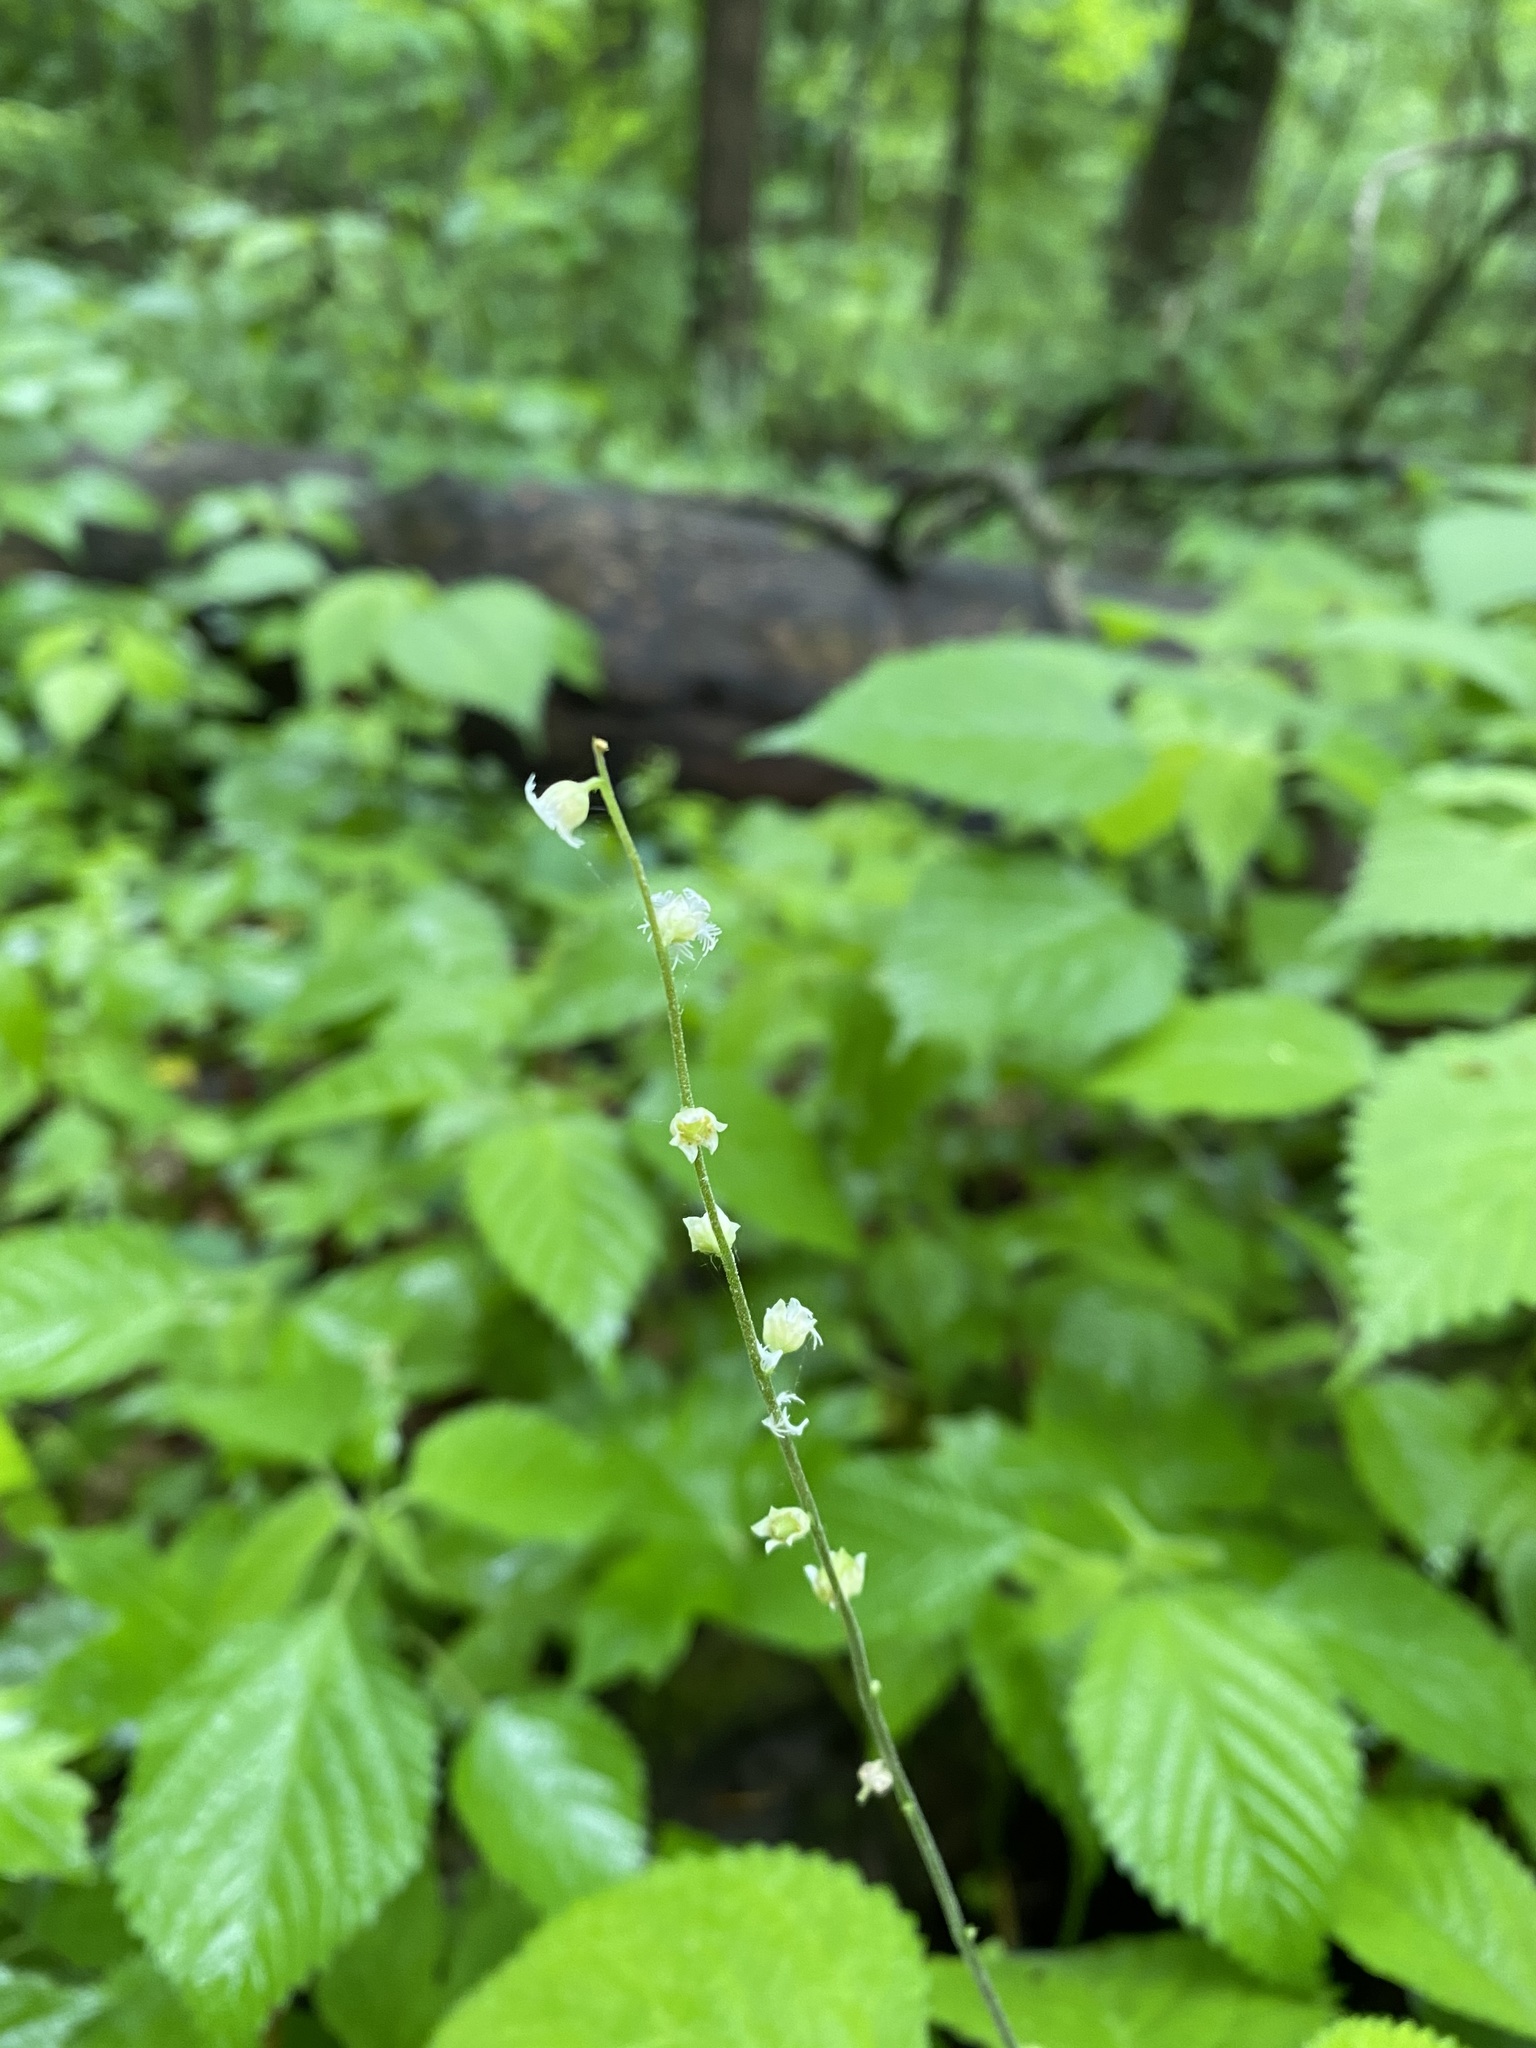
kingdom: Plantae
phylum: Tracheophyta
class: Magnoliopsida
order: Saxifragales
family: Saxifragaceae
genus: Mitella
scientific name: Mitella diphylla
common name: Coolwort
